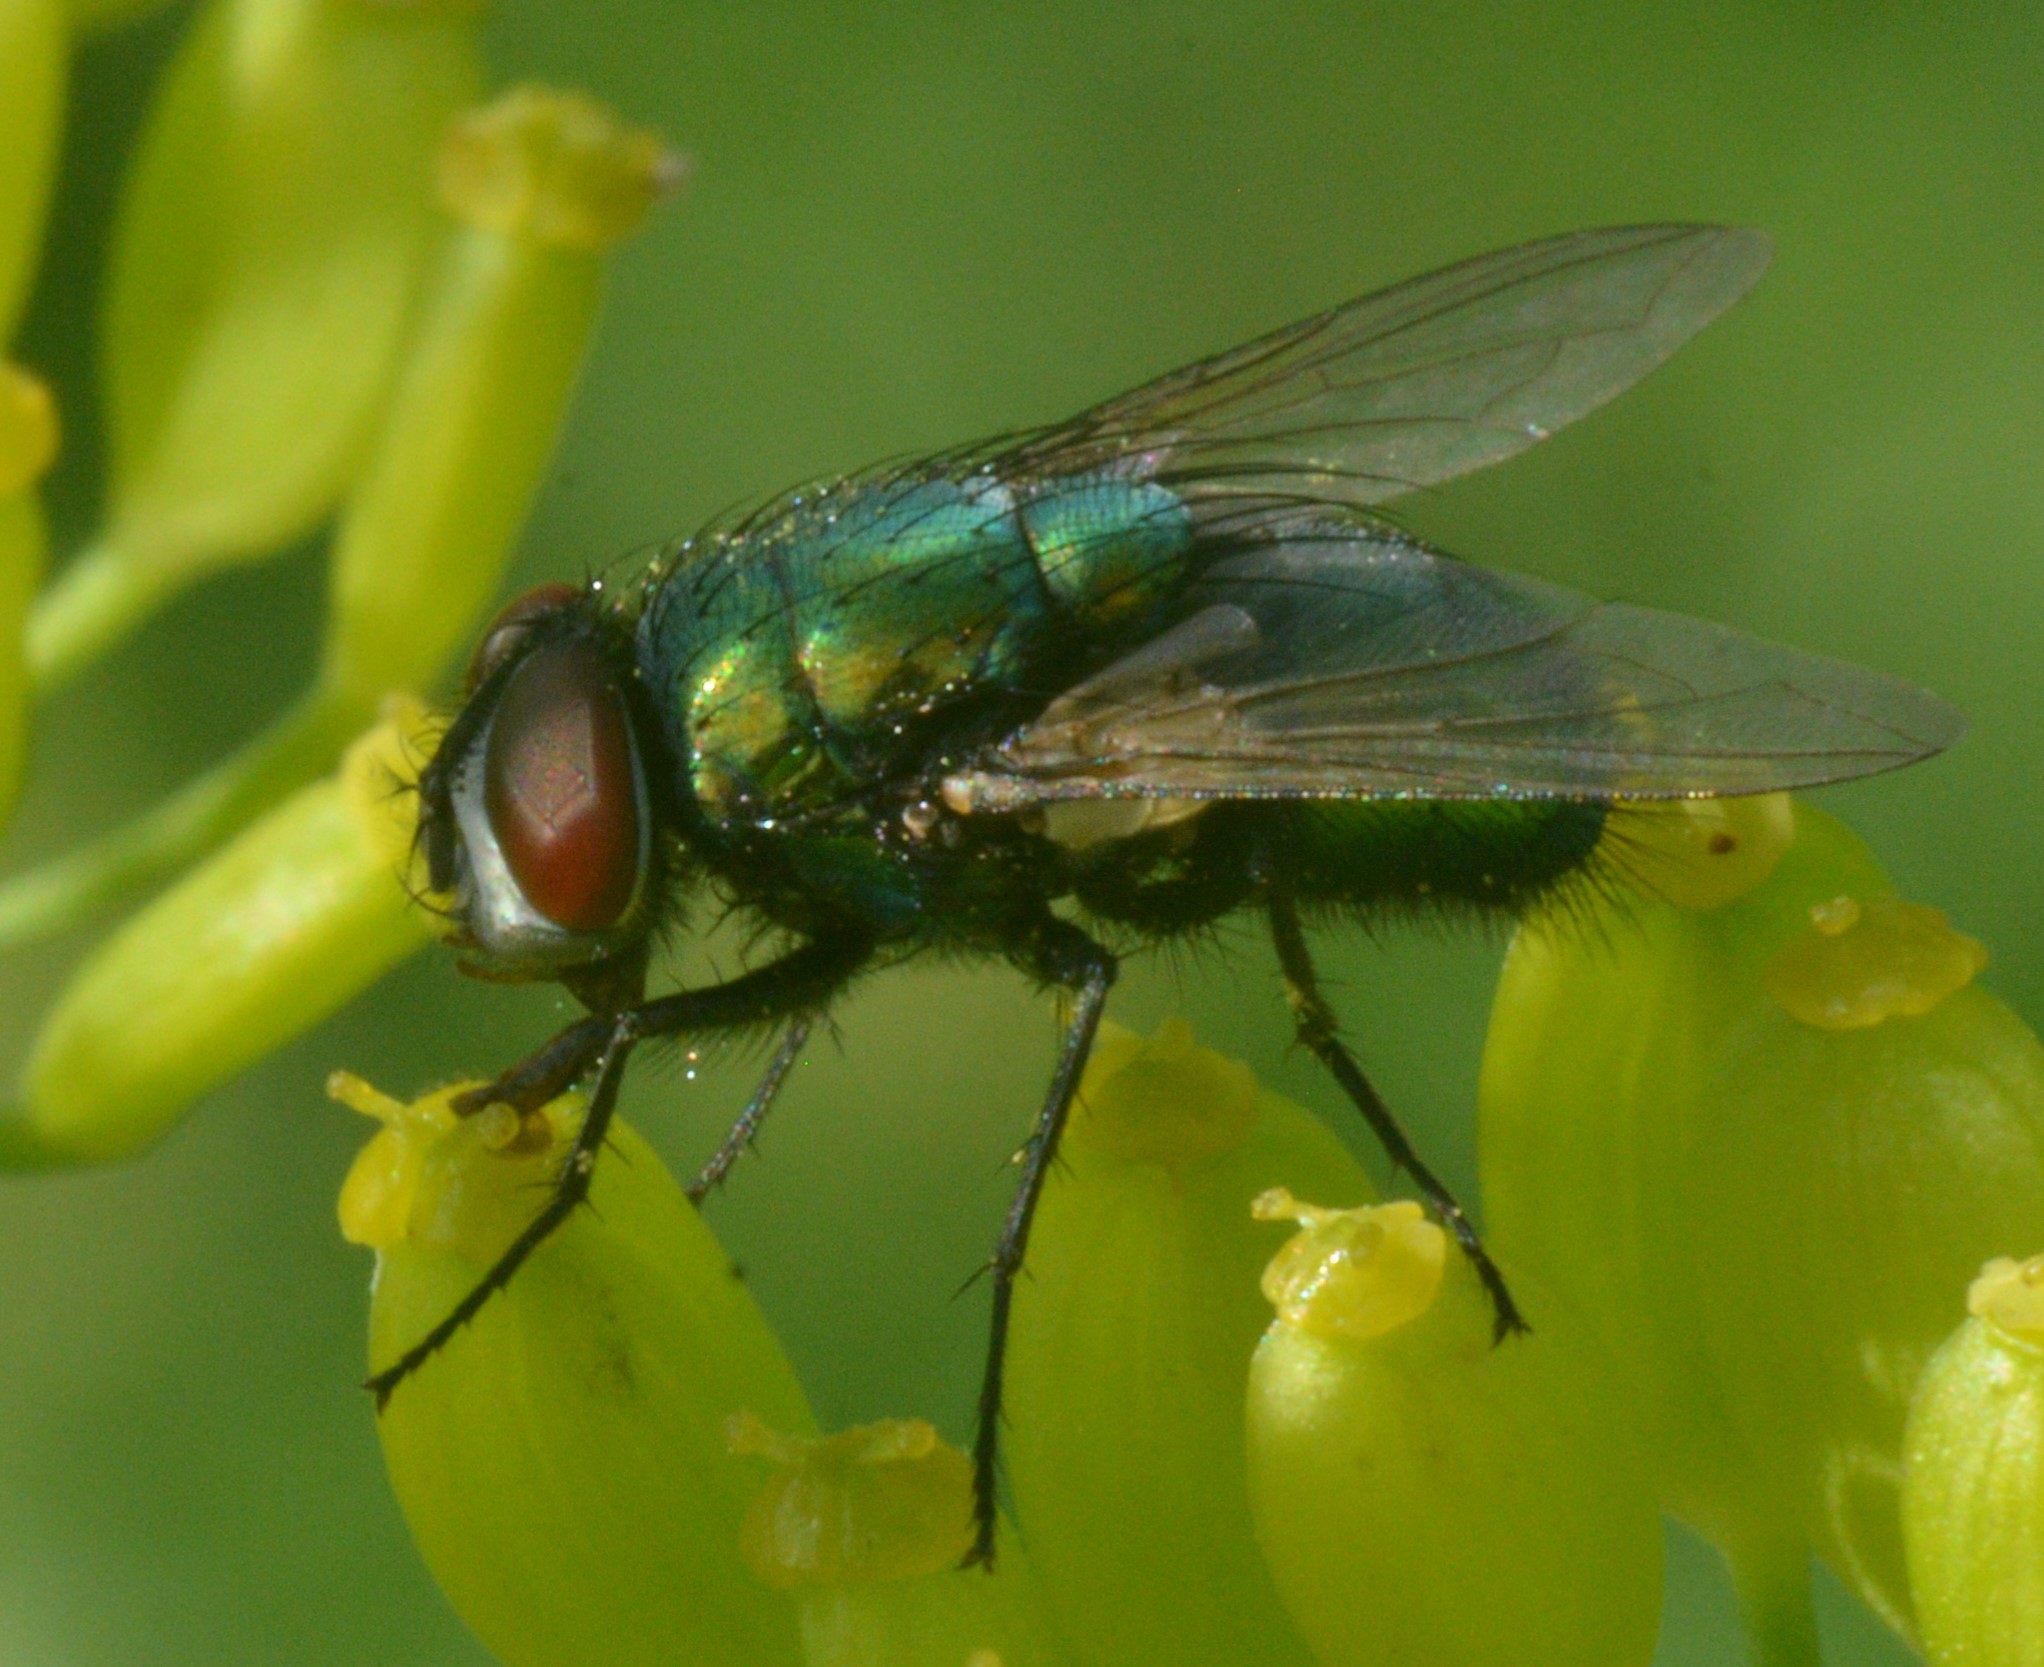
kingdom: Animalia
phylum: Arthropoda
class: Insecta
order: Diptera
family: Calliphoridae
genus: Lucilia
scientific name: Lucilia sericata
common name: Blow fly
